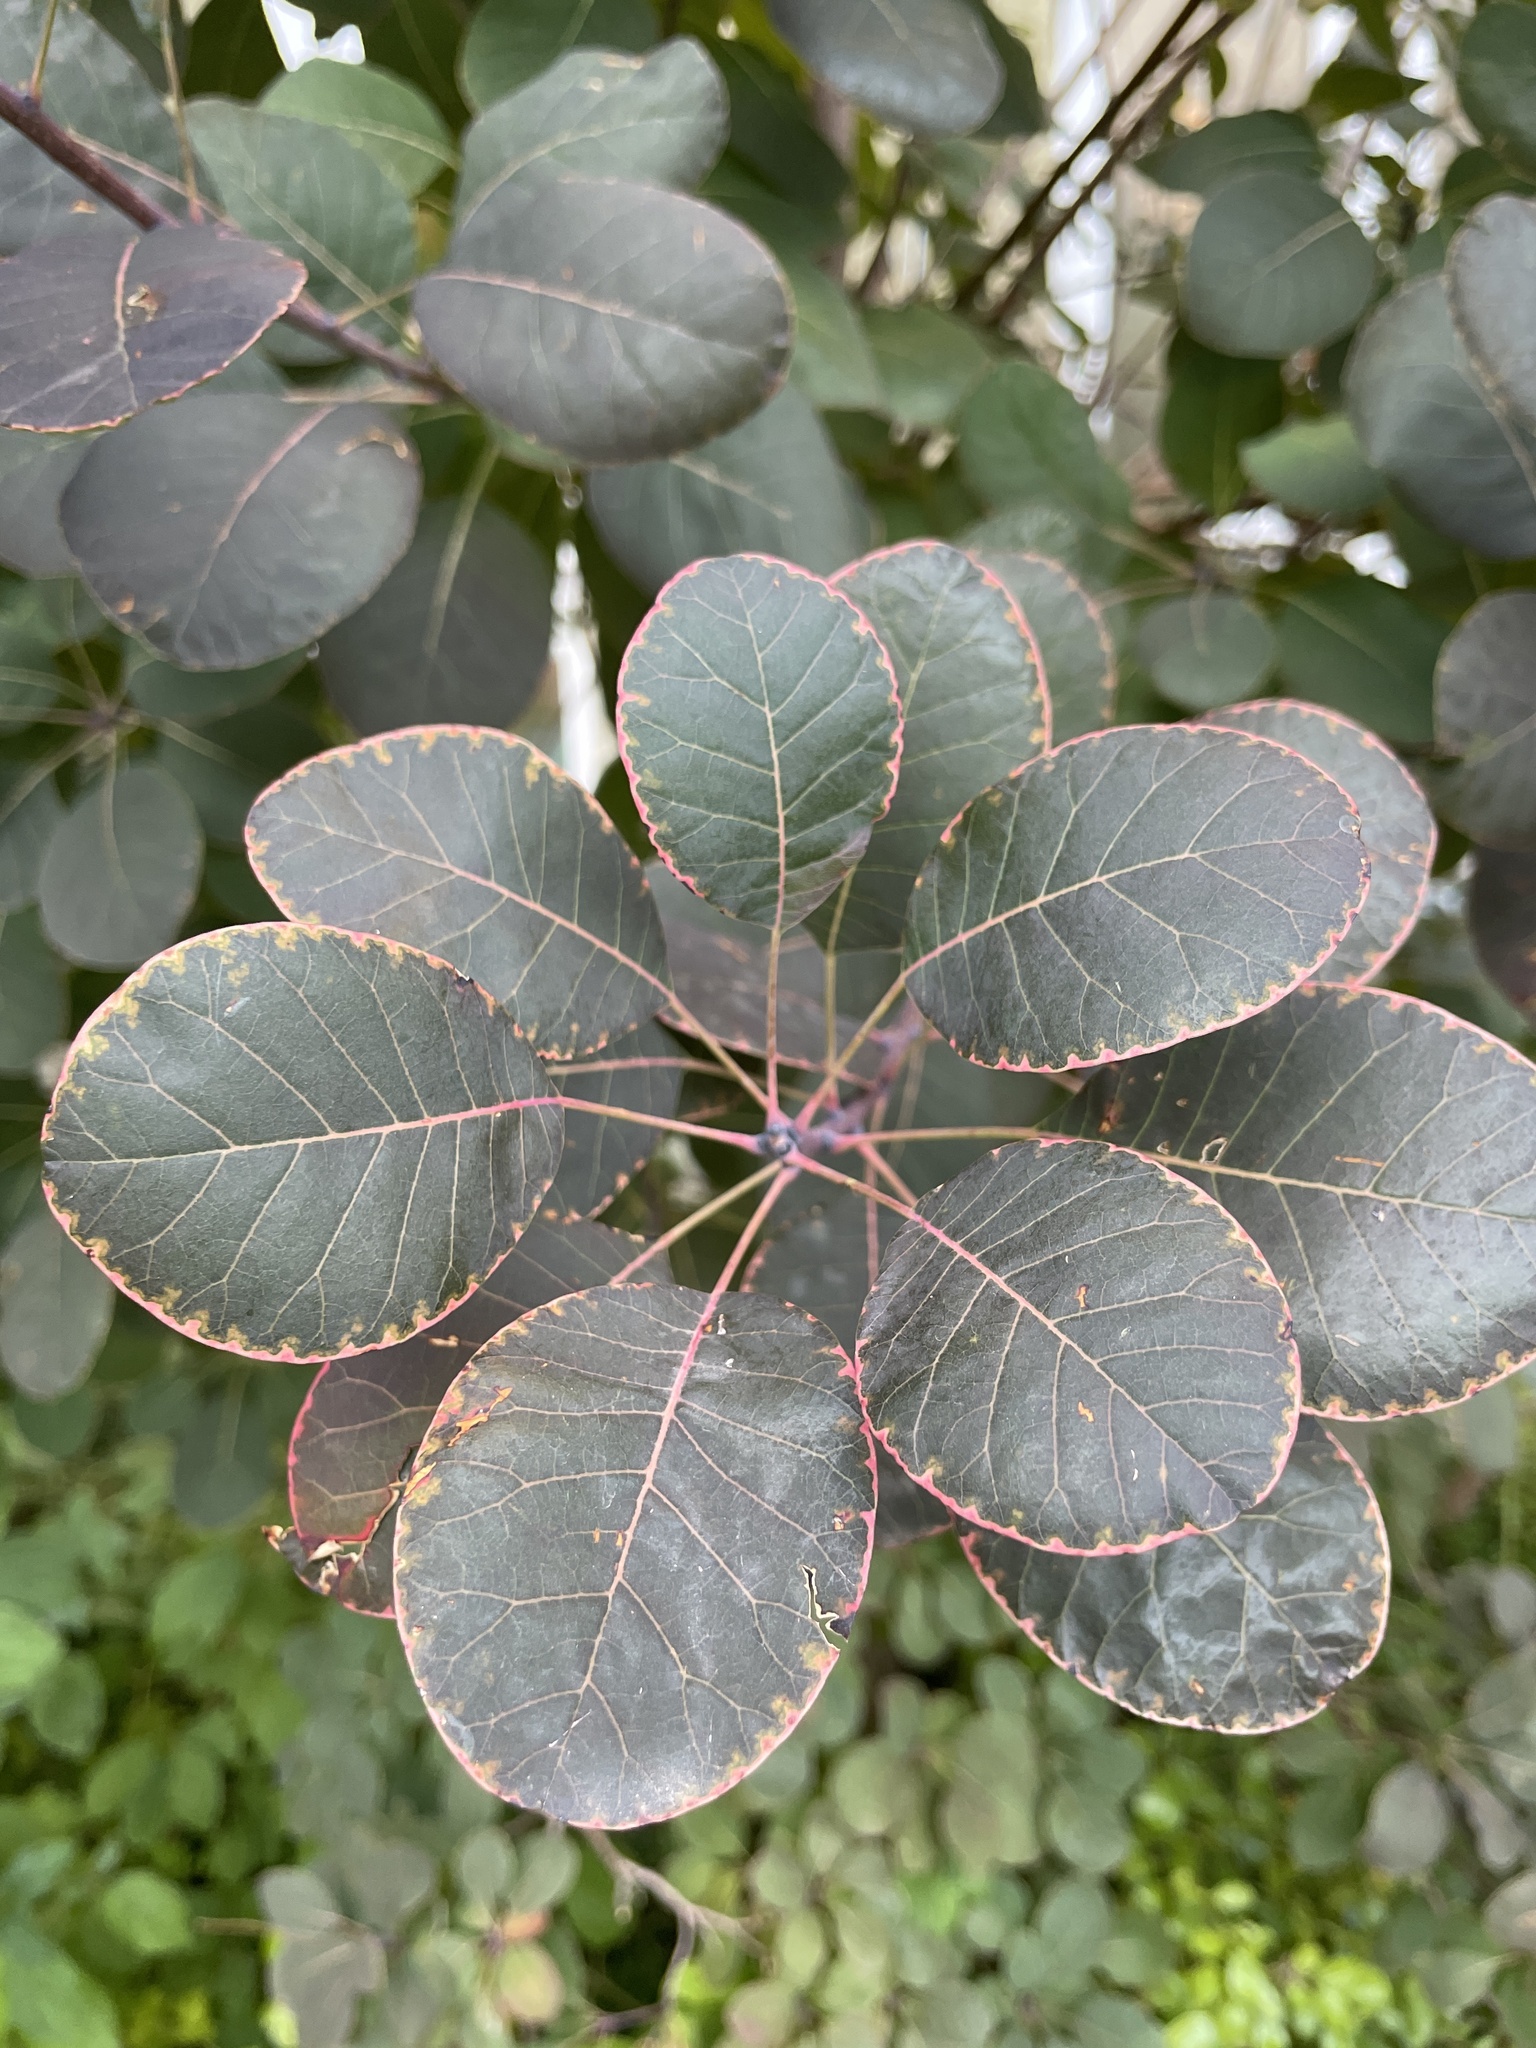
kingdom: Plantae
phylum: Tracheophyta
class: Magnoliopsida
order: Sapindales
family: Anacardiaceae
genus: Cotinus
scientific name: Cotinus coggygria
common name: Smoke-tree
